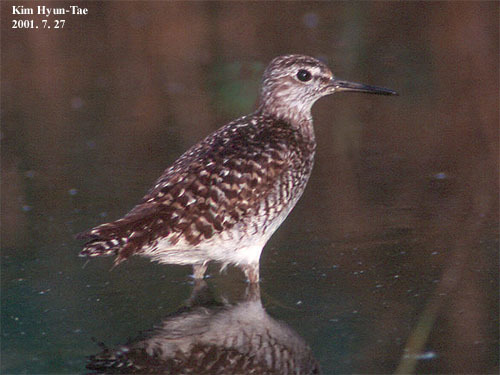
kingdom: Animalia
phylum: Chordata
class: Aves
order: Charadriiformes
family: Scolopacidae
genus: Tringa
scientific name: Tringa glareola
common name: Wood sandpiper
